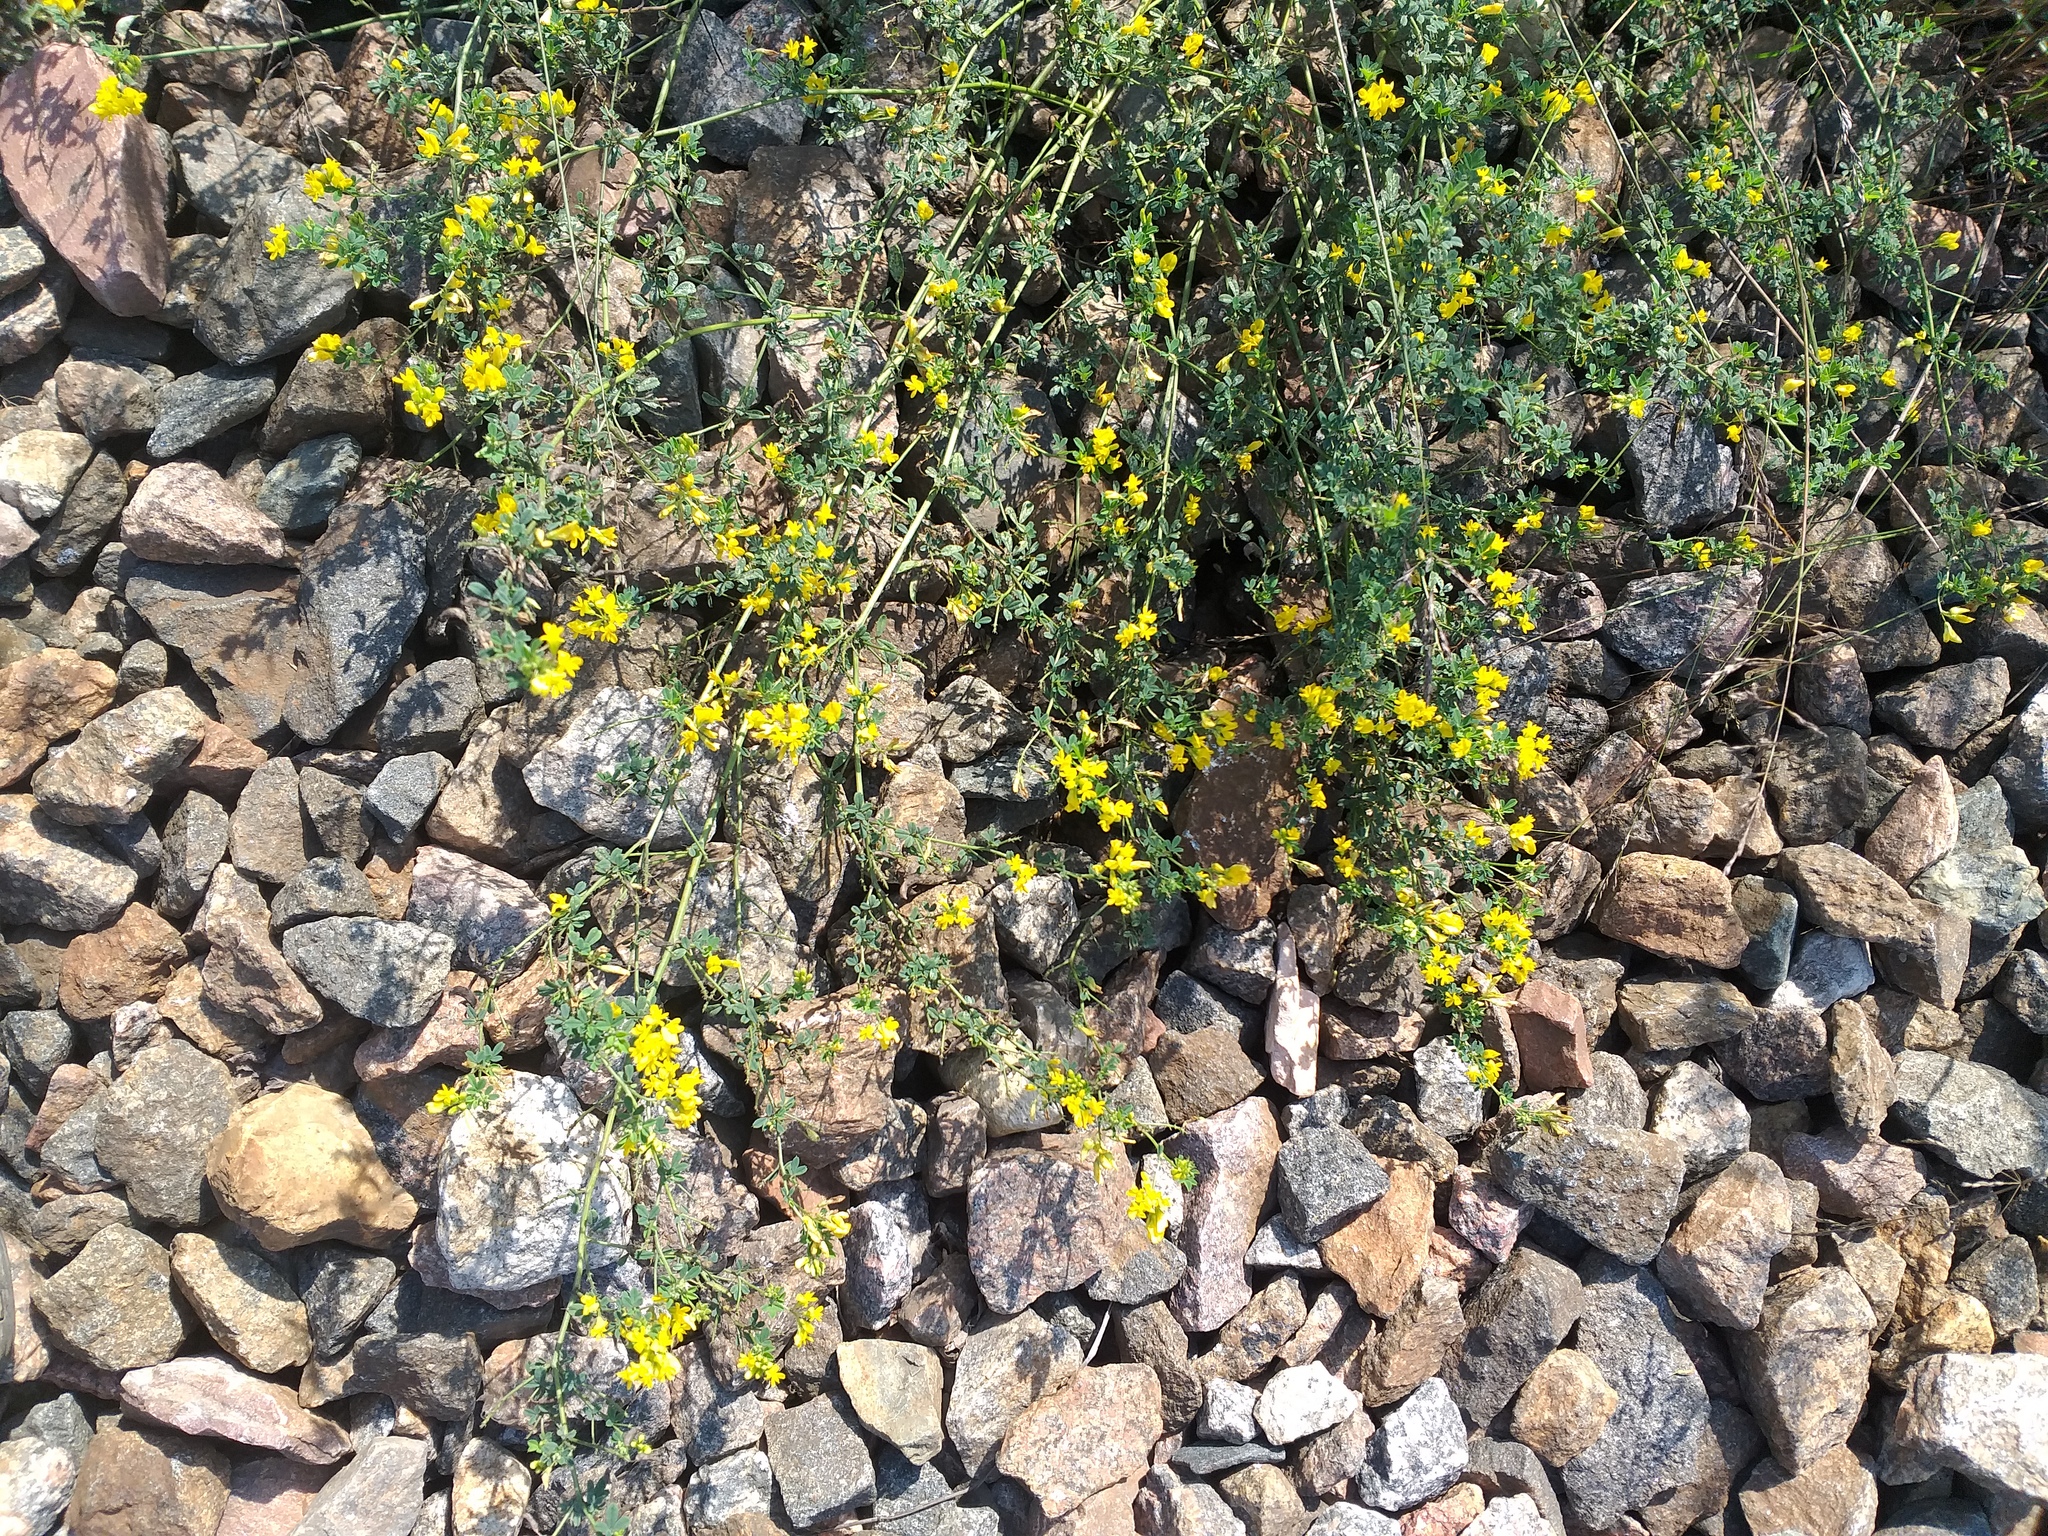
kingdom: Plantae
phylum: Tracheophyta
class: Magnoliopsida
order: Fabales
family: Fabaceae
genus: Medicago
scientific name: Medicago falcata
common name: Sickle medick
